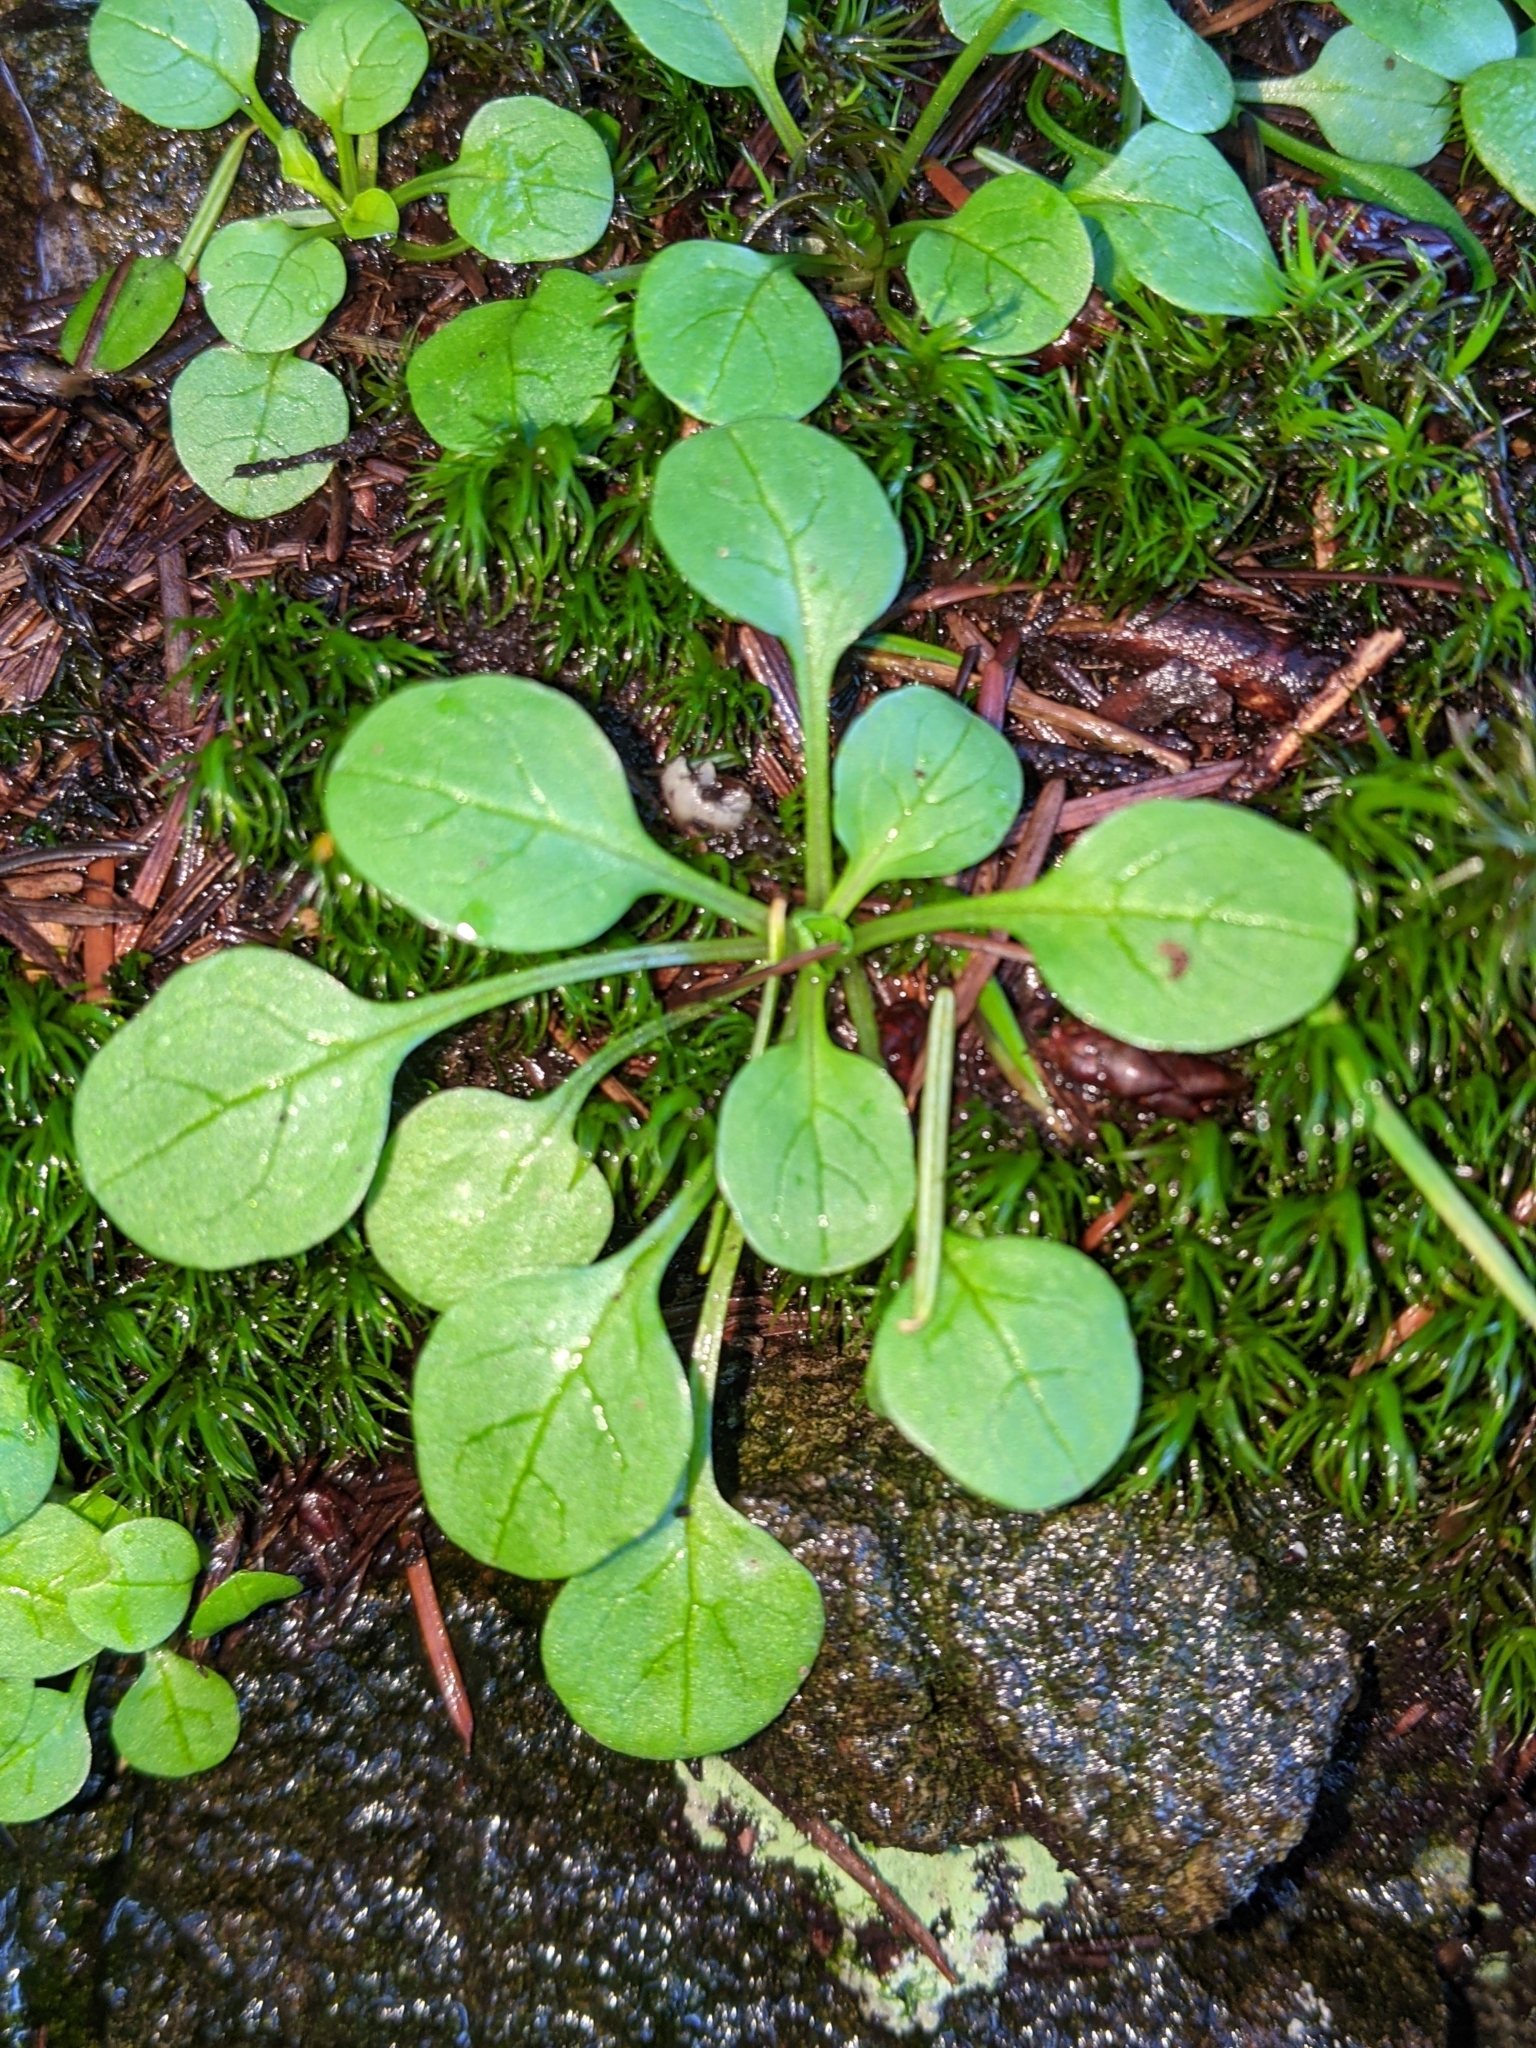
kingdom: Plantae
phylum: Tracheophyta
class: Magnoliopsida
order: Caryophyllales
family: Montiaceae
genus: Montia
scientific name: Montia parvifolia
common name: Small-leaved blinks
